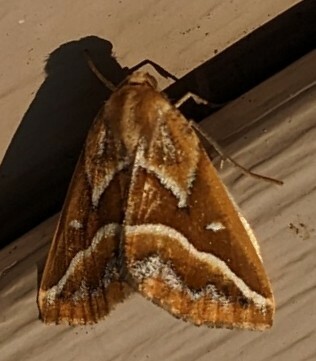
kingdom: Animalia
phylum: Arthropoda
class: Insecta
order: Lepidoptera
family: Geometridae
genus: Caripeta
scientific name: Caripeta angustiorata
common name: Brown pine looper
